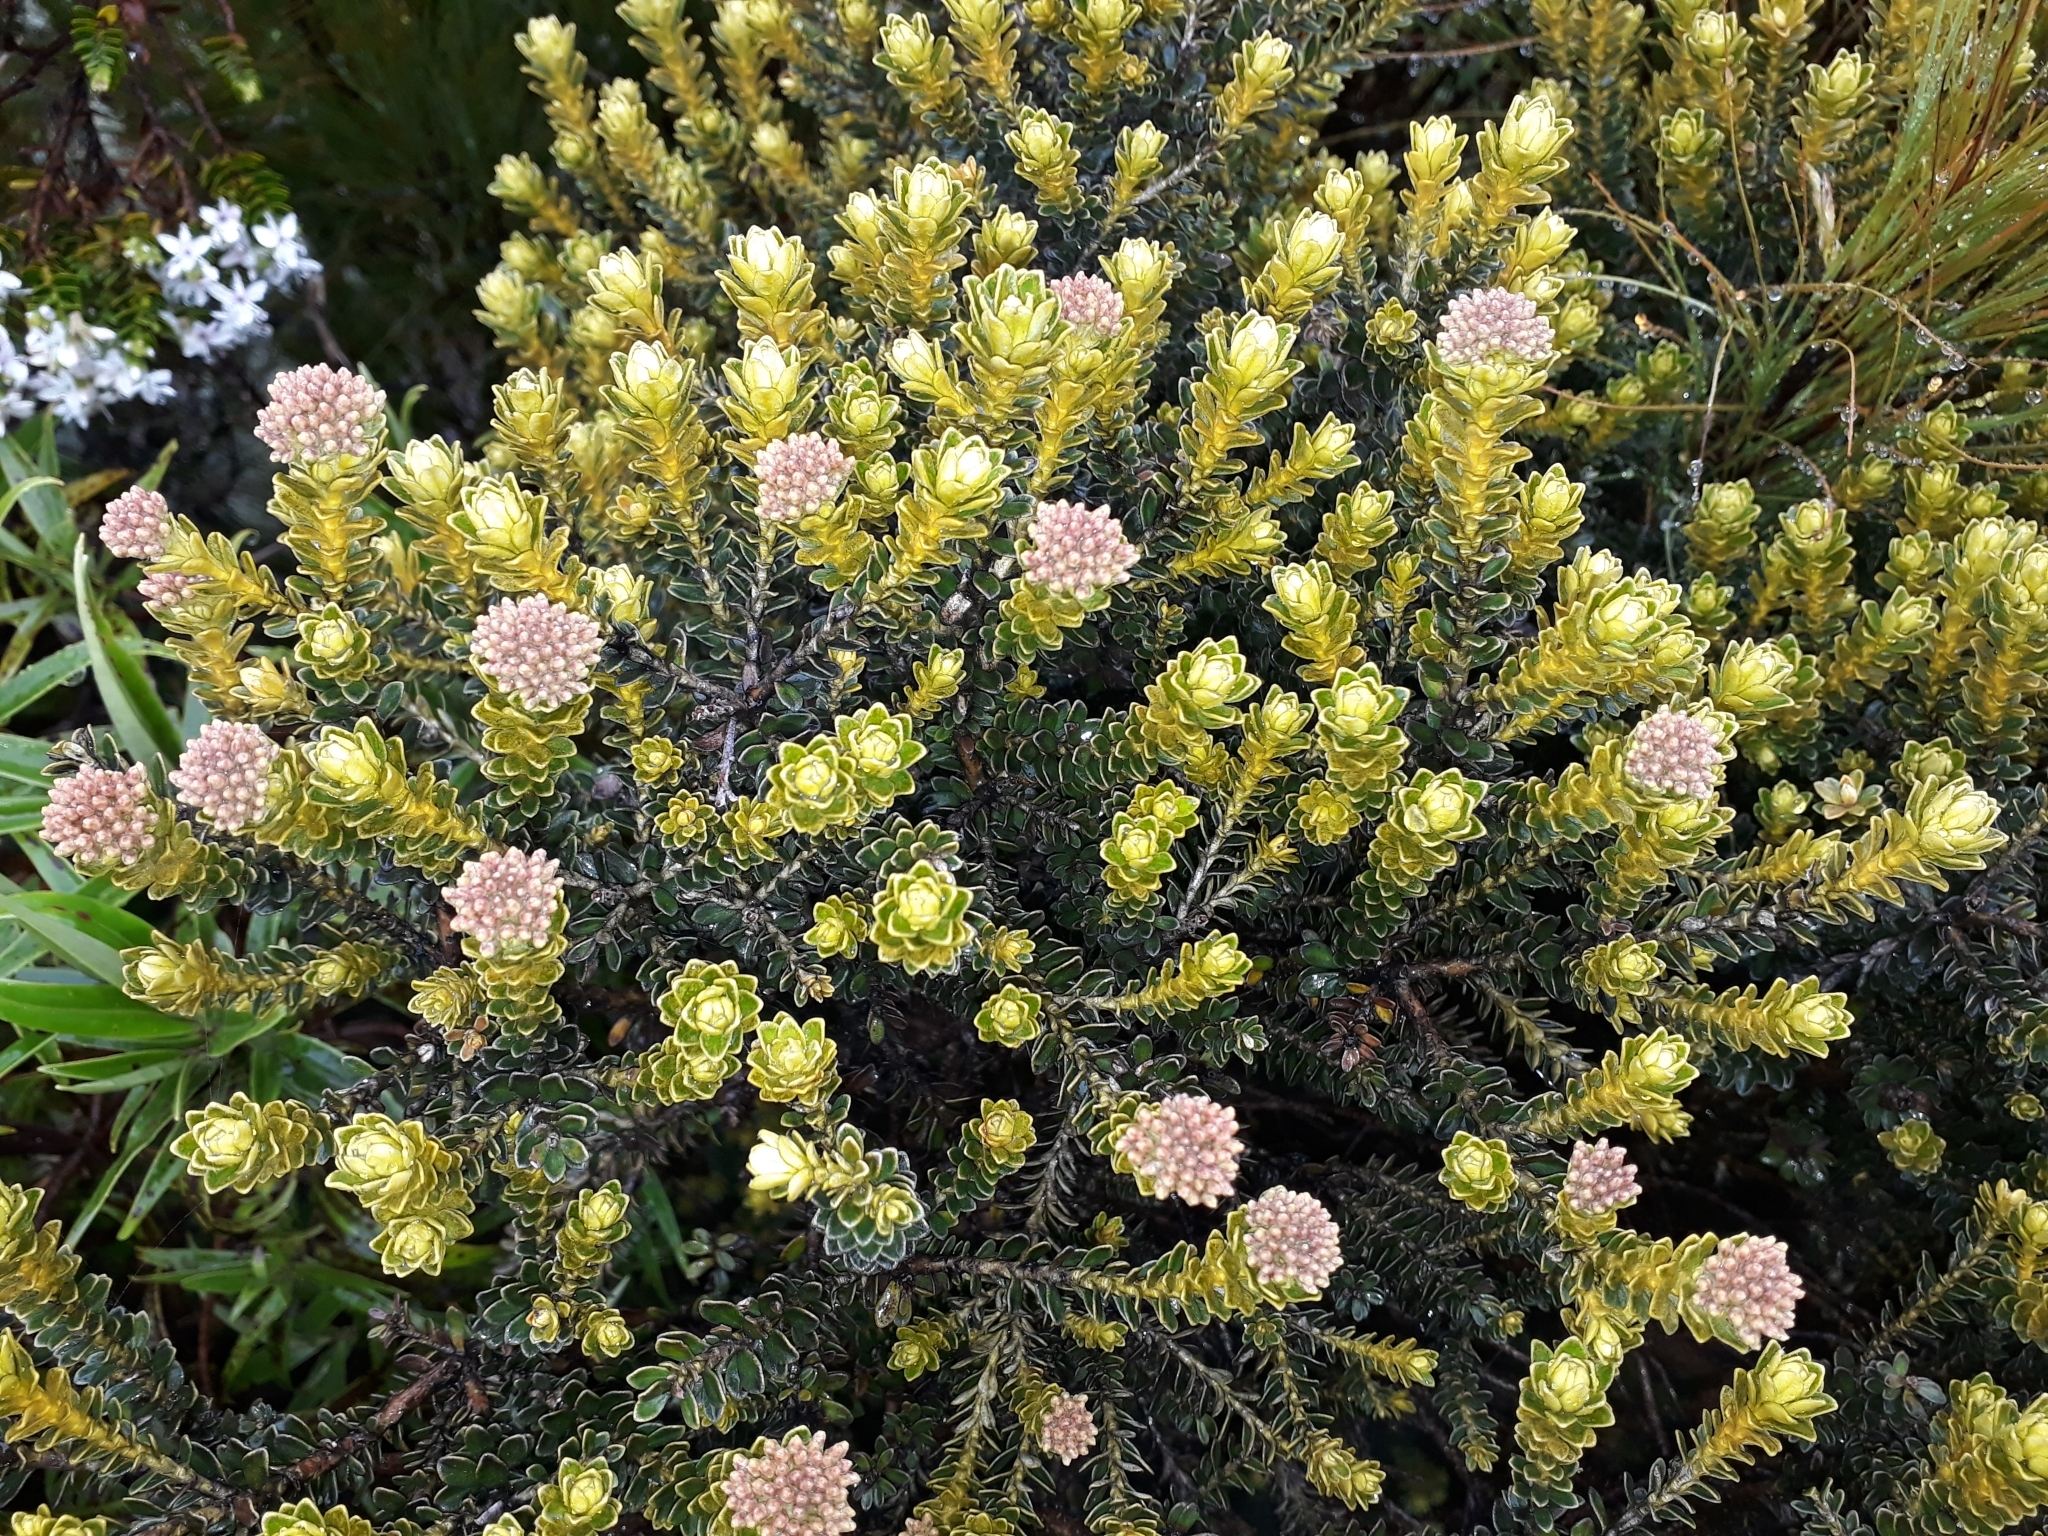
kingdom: Plantae
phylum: Tracheophyta
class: Magnoliopsida
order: Asterales
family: Asteraceae
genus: Ozothamnus
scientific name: Ozothamnus leptophyllus
